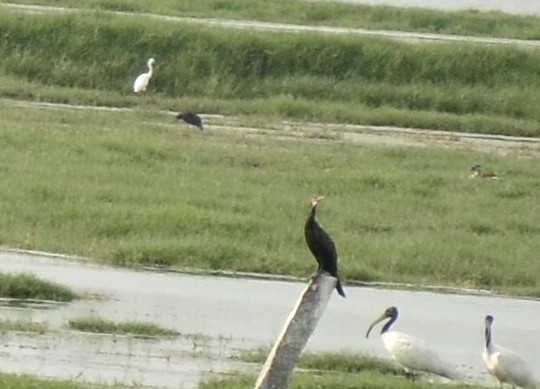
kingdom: Animalia
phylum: Chordata
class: Aves
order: Suliformes
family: Phalacrocoracidae
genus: Phalacrocorax
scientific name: Phalacrocorax fuscicollis
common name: Indian cormorant
